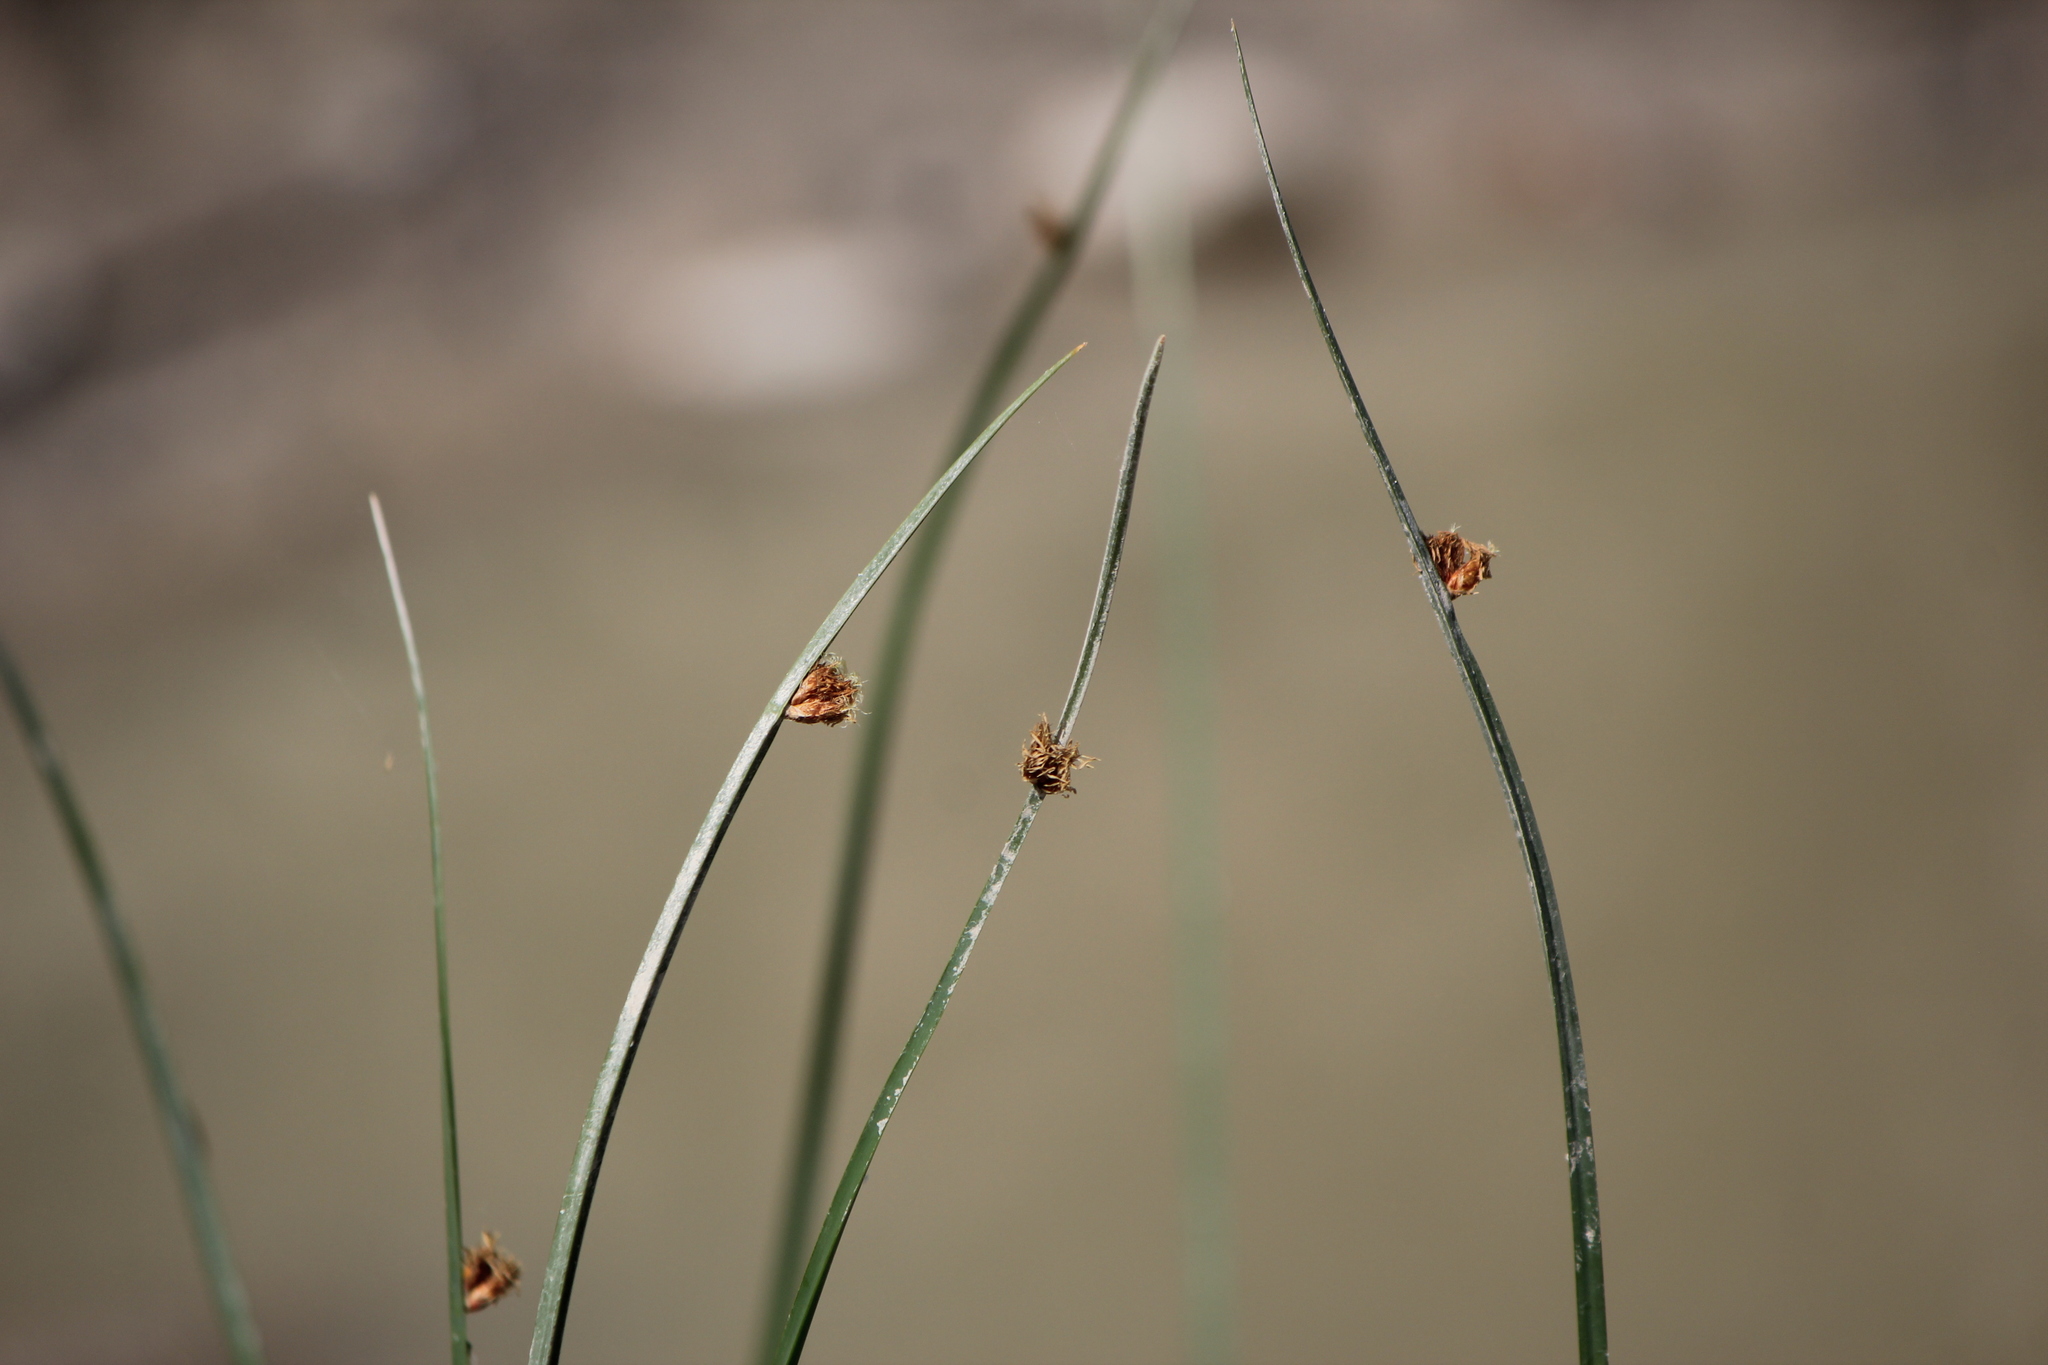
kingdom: Plantae
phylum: Tracheophyta
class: Liliopsida
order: Poales
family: Cyperaceae
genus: Schoenoplectus
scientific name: Schoenoplectus pungens
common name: Sharp club-rush
